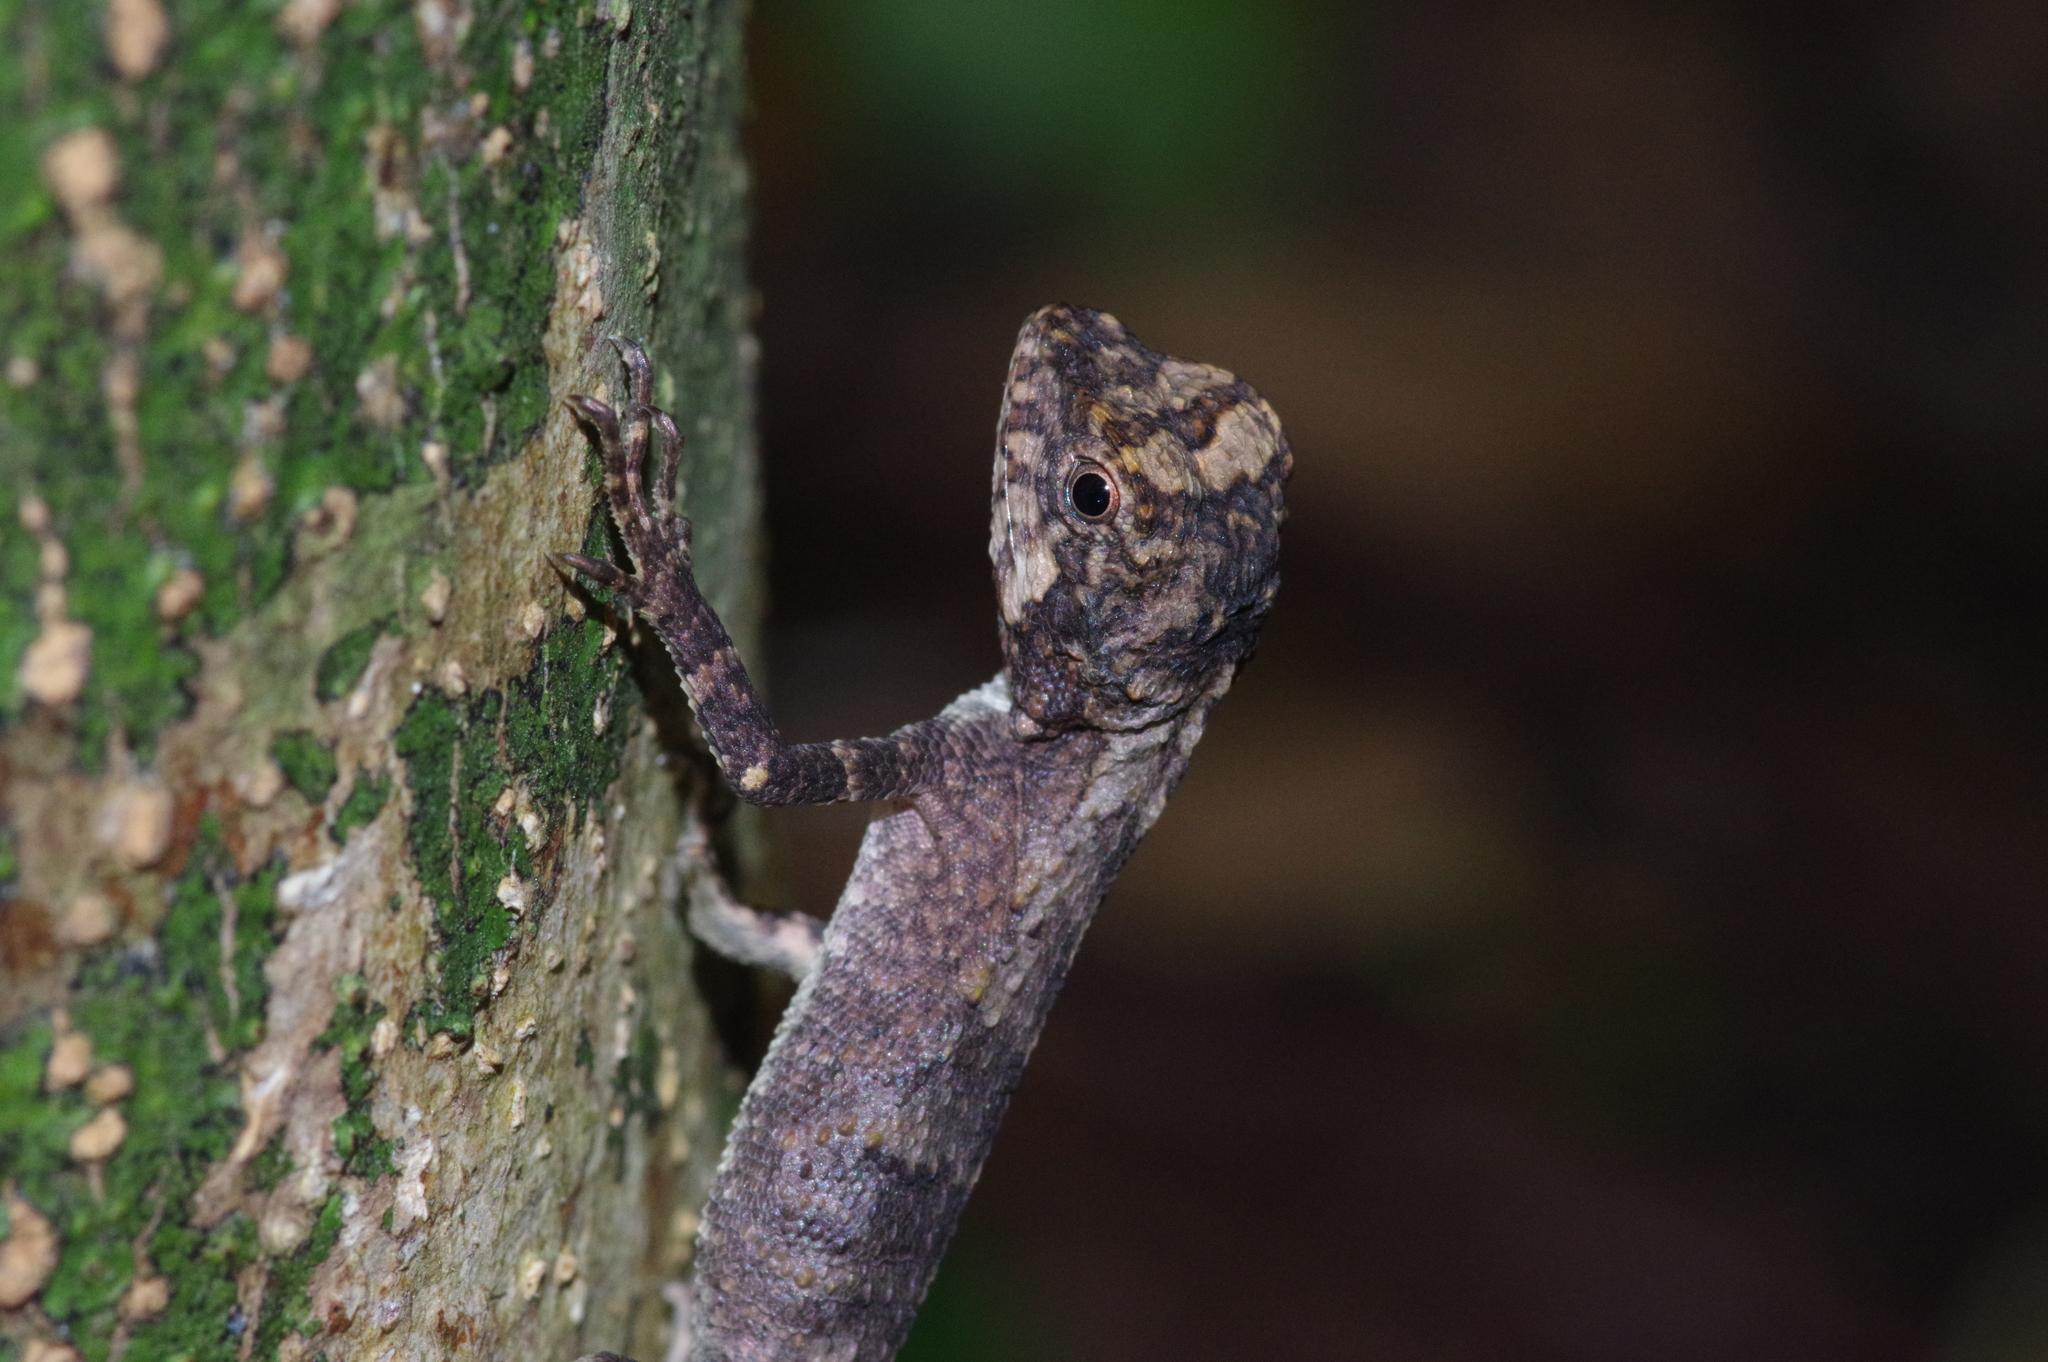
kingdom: Fungi
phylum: Basidiomycota
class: Agaricomycetes
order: Boletales
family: Diplocystidiaceae
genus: Diploderma
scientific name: Diploderma polygonatum
